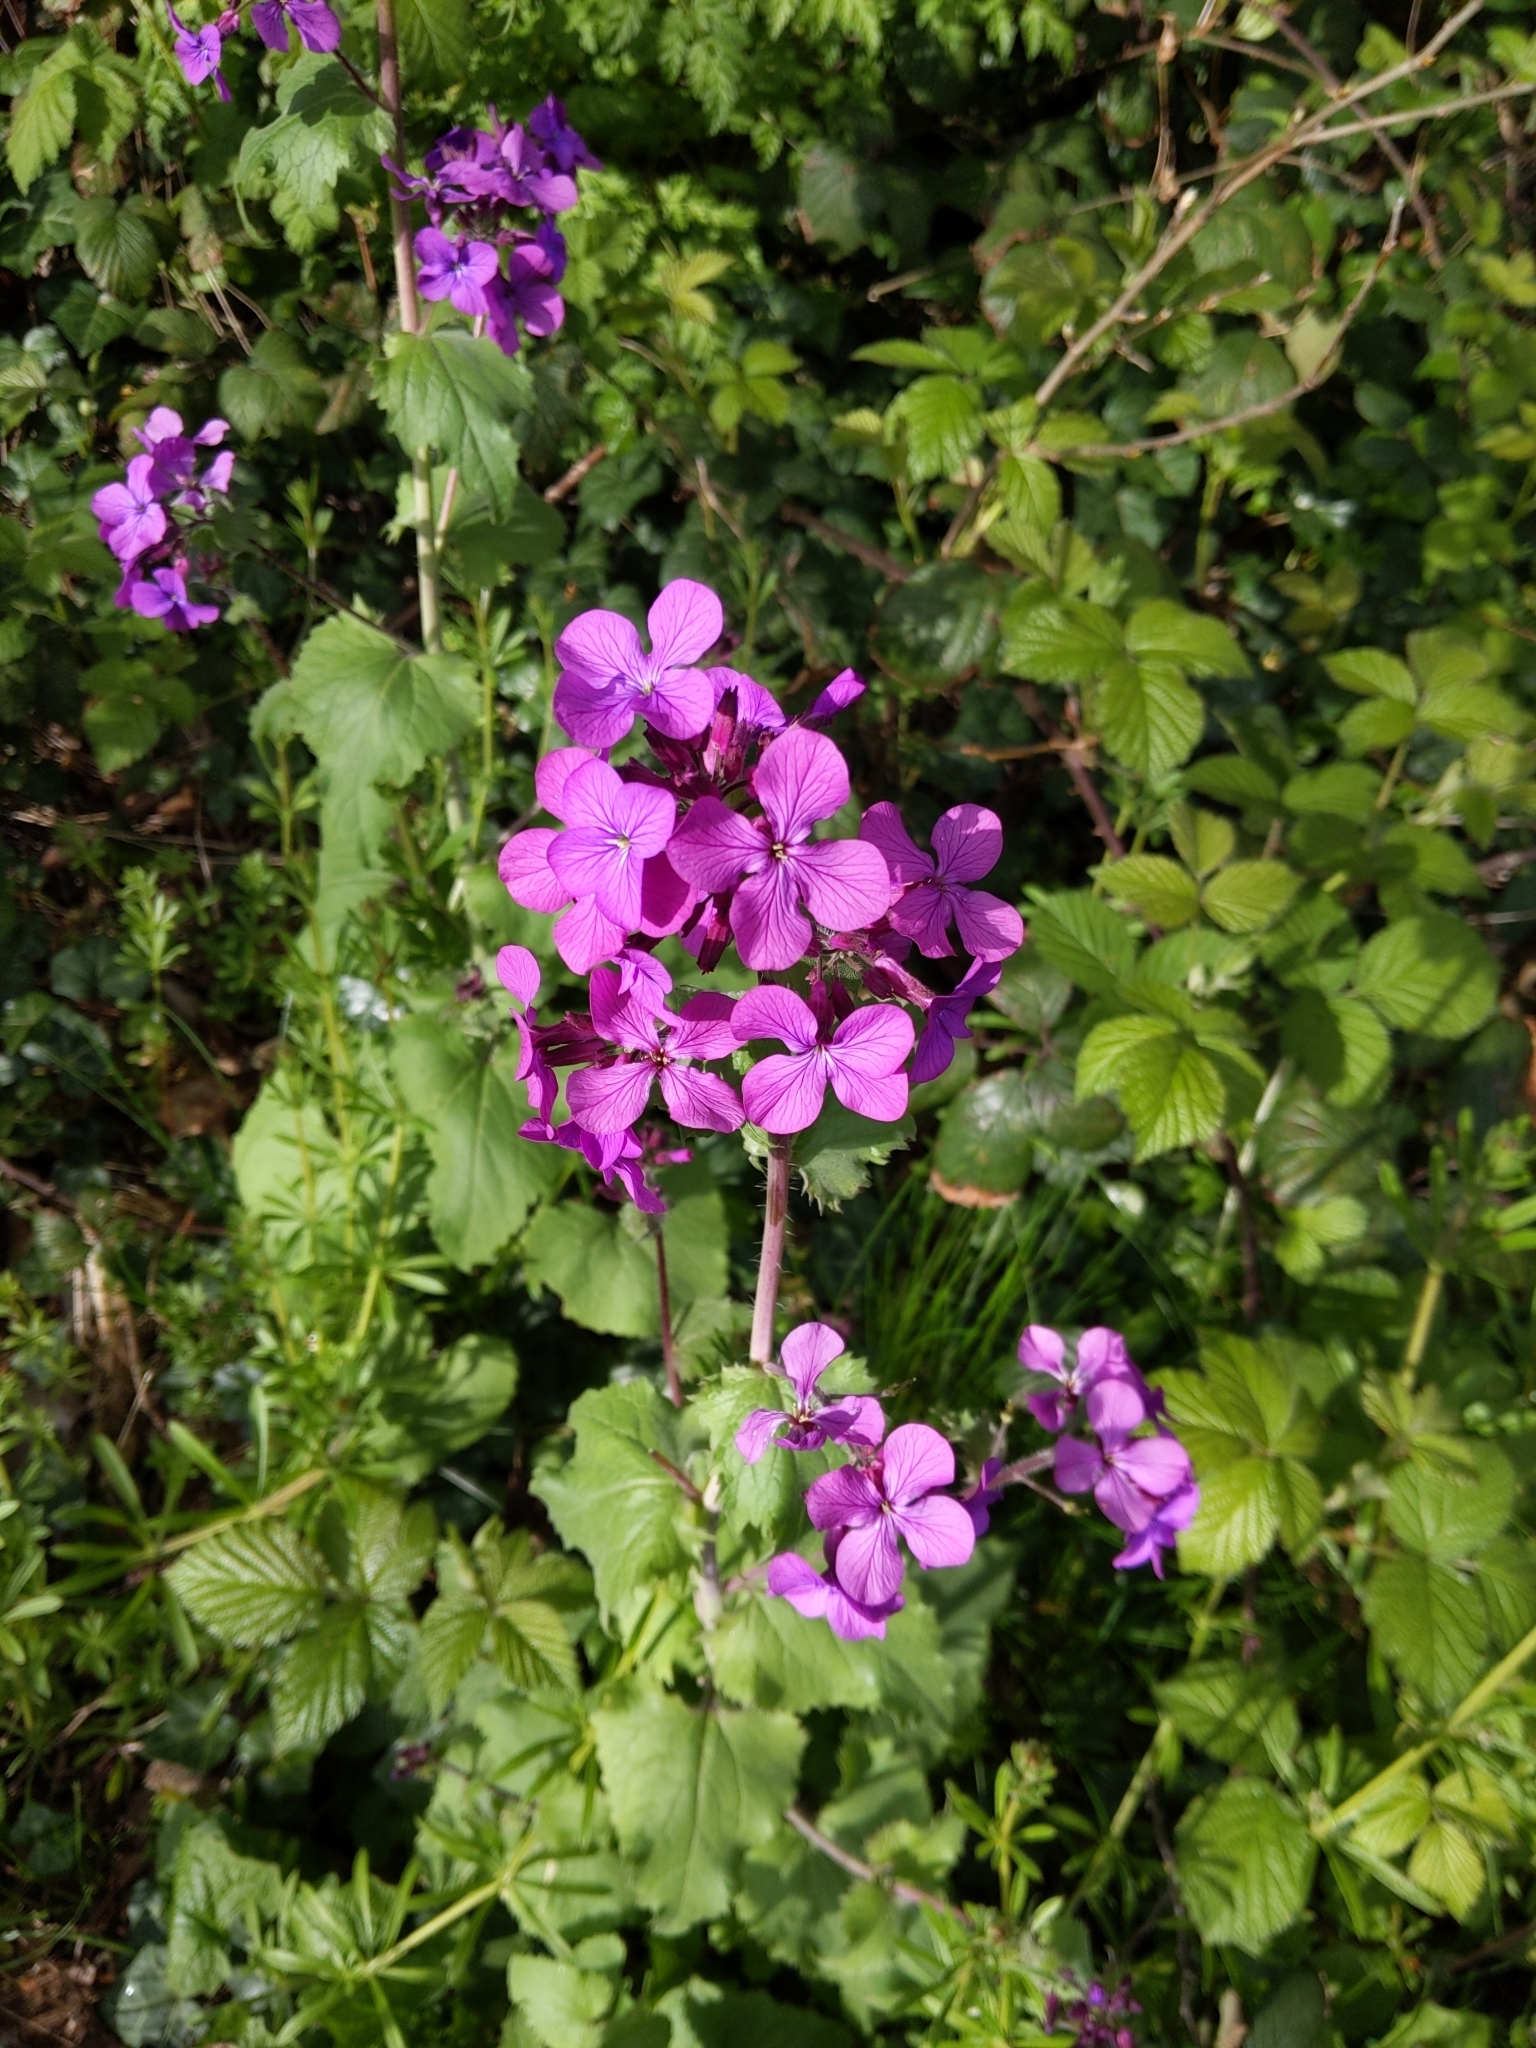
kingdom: Plantae
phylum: Tracheophyta
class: Magnoliopsida
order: Brassicales
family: Brassicaceae
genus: Lunaria
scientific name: Lunaria annua
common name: Honesty
